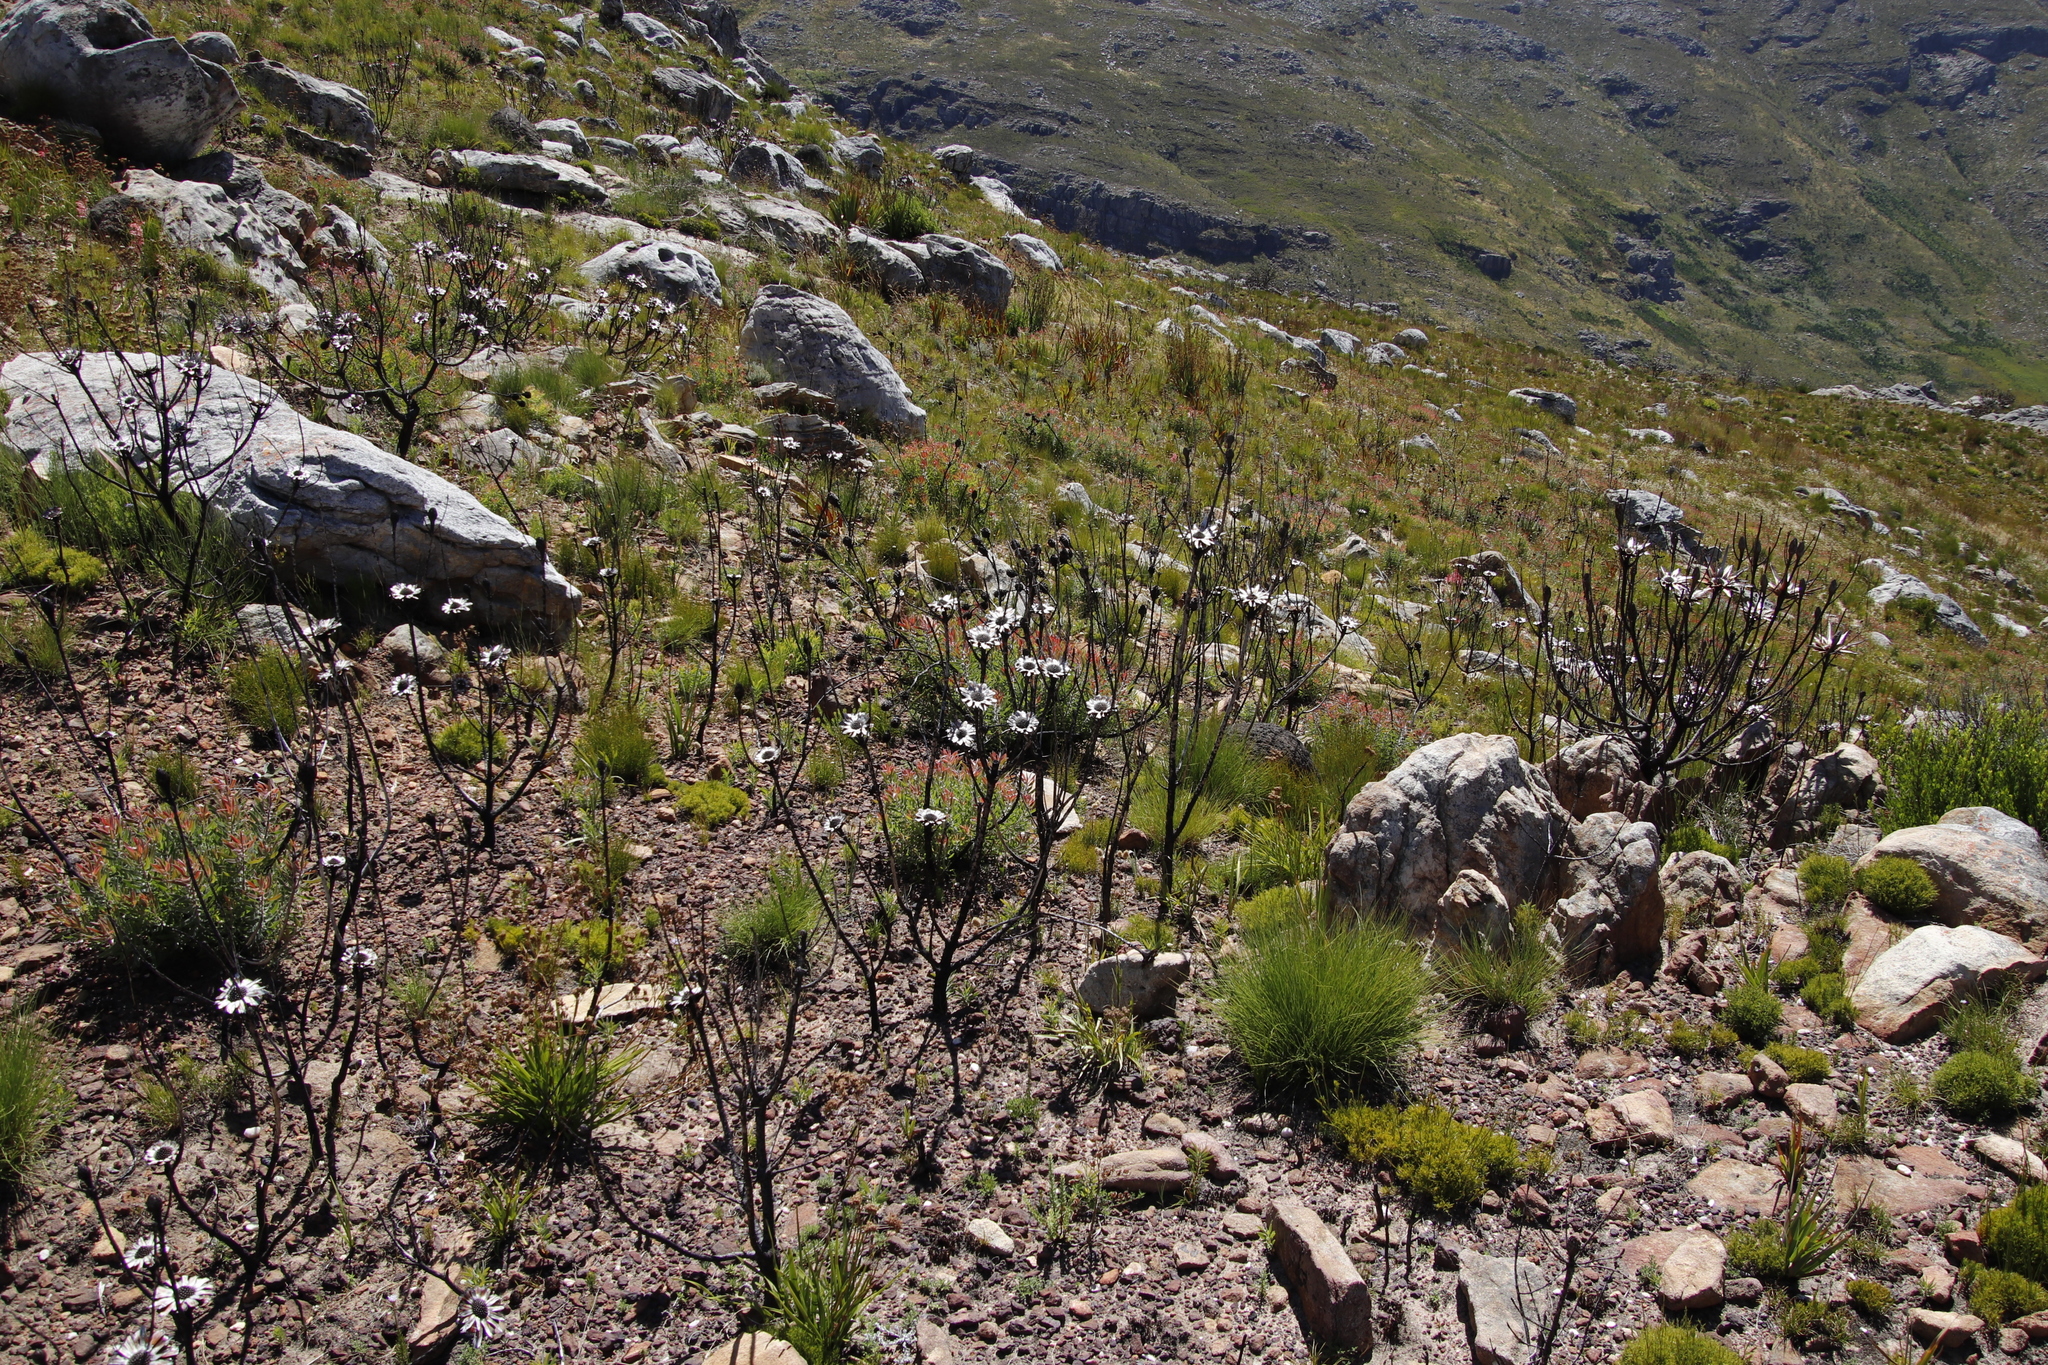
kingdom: Plantae
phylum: Tracheophyta
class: Magnoliopsida
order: Proteales
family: Proteaceae
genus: Leucadendron
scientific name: Leucadendron spissifolium
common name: Spear-leaf conebush
